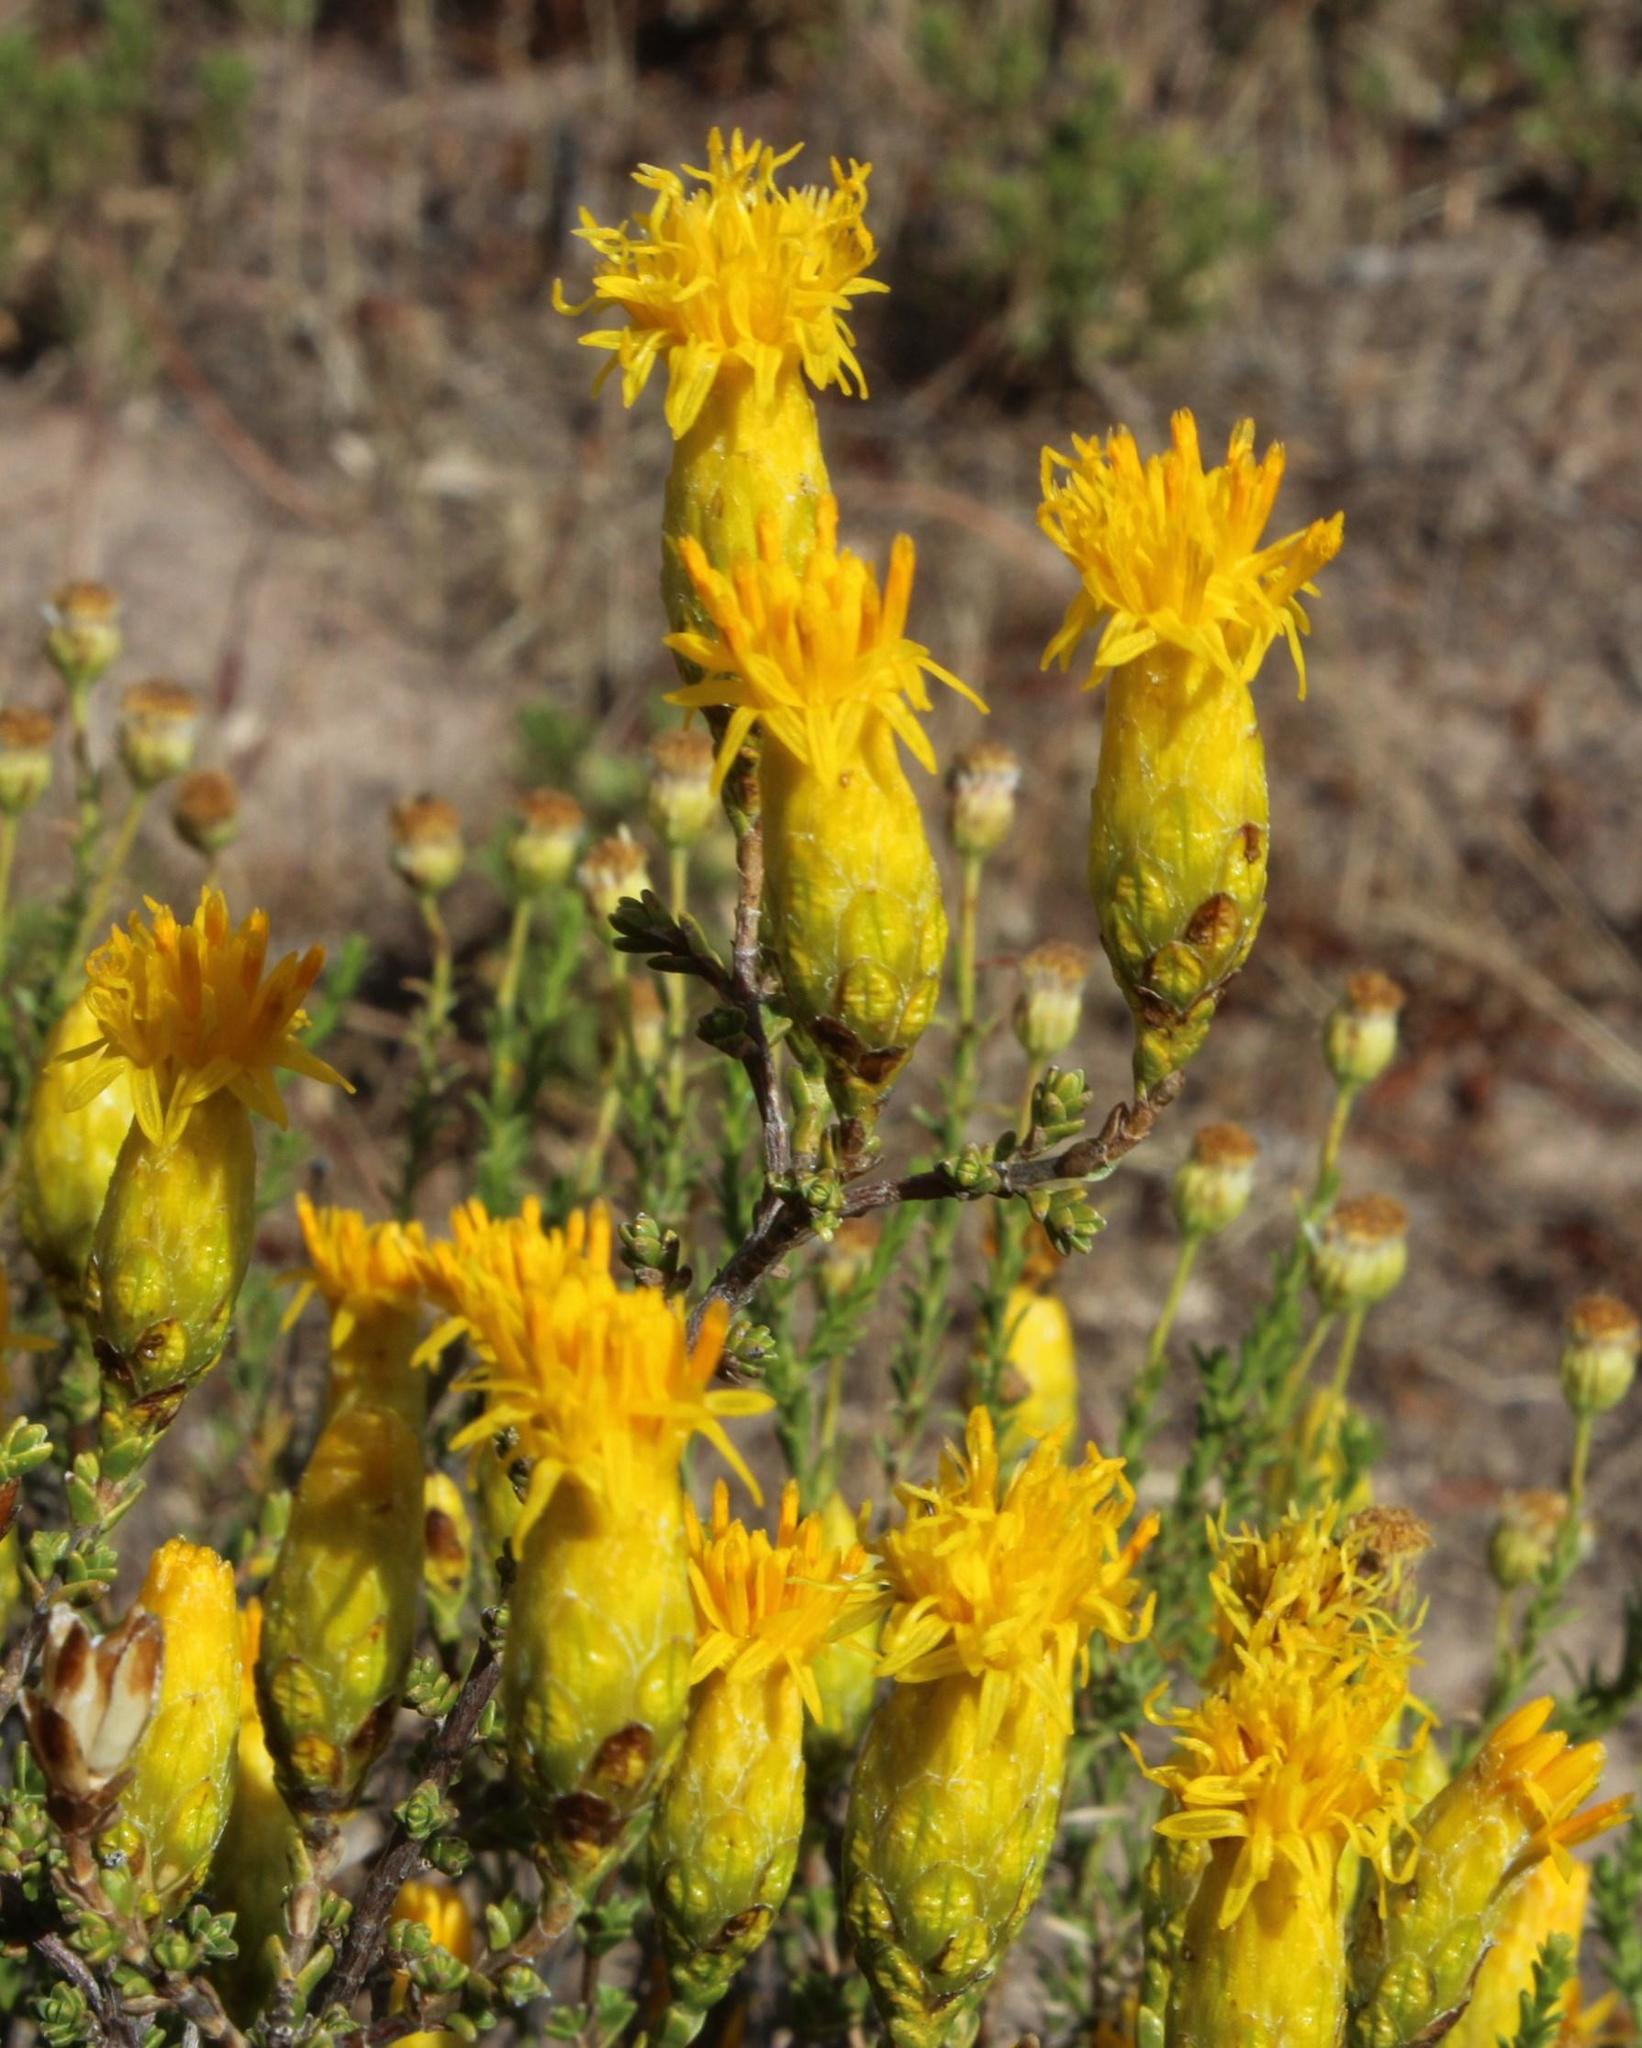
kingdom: Plantae
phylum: Tracheophyta
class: Magnoliopsida
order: Asterales
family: Asteraceae
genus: Pteronia
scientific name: Pteronia glomerata
